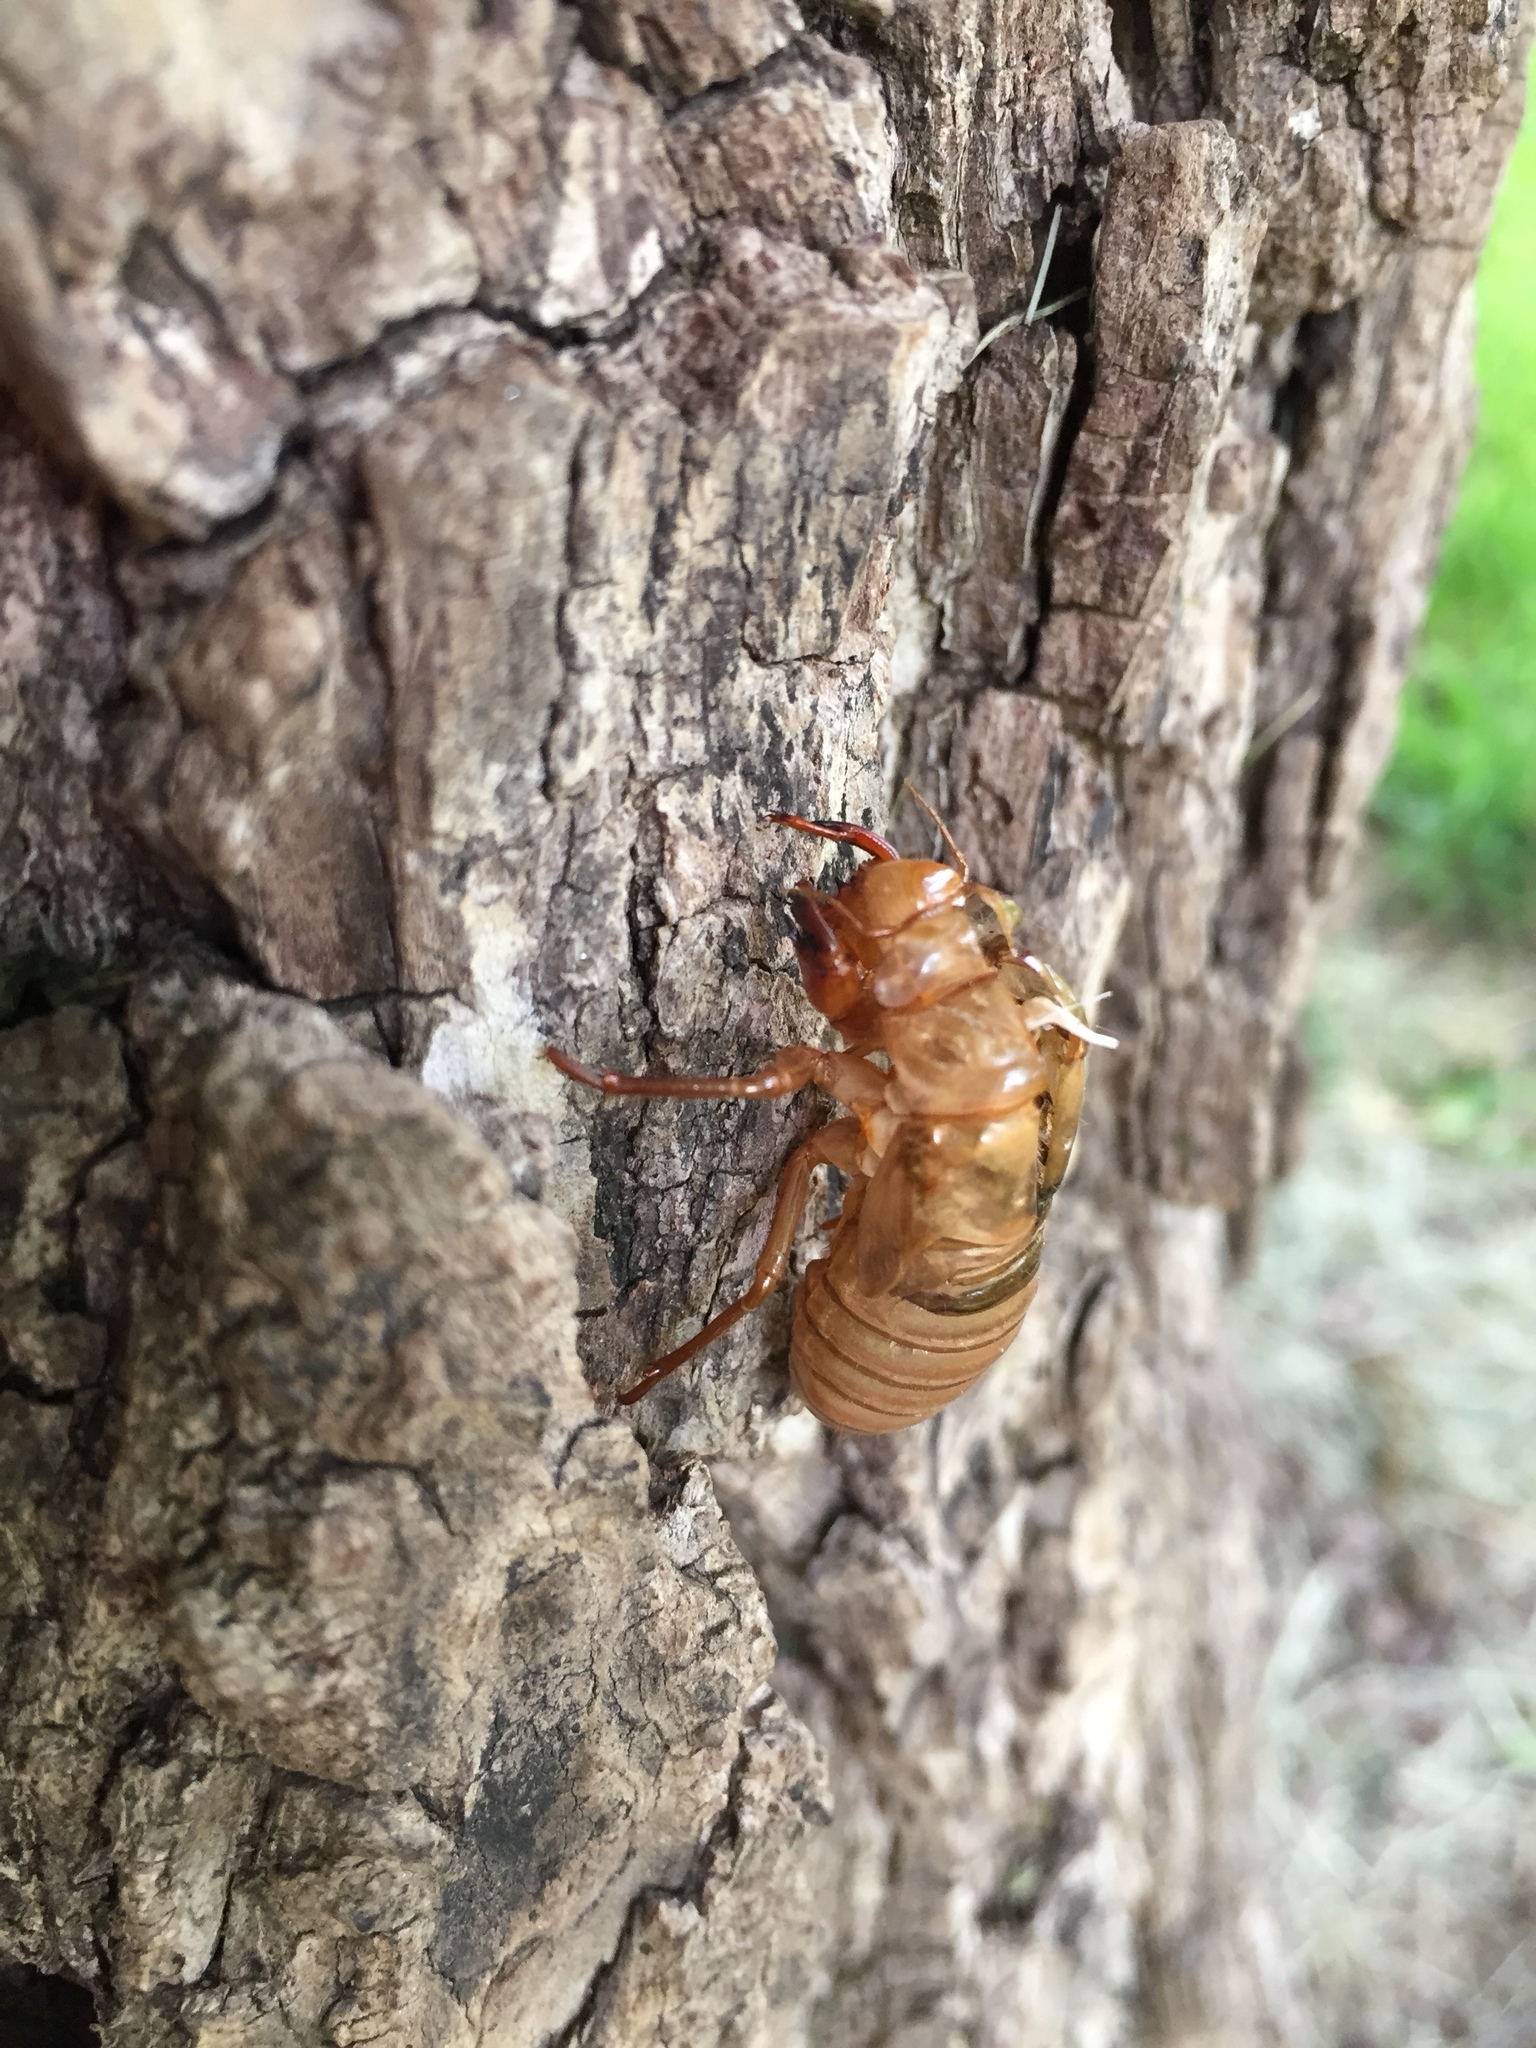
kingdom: Animalia
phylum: Arthropoda
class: Insecta
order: Hemiptera
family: Cicadidae
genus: Magicicada
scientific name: Magicicada
